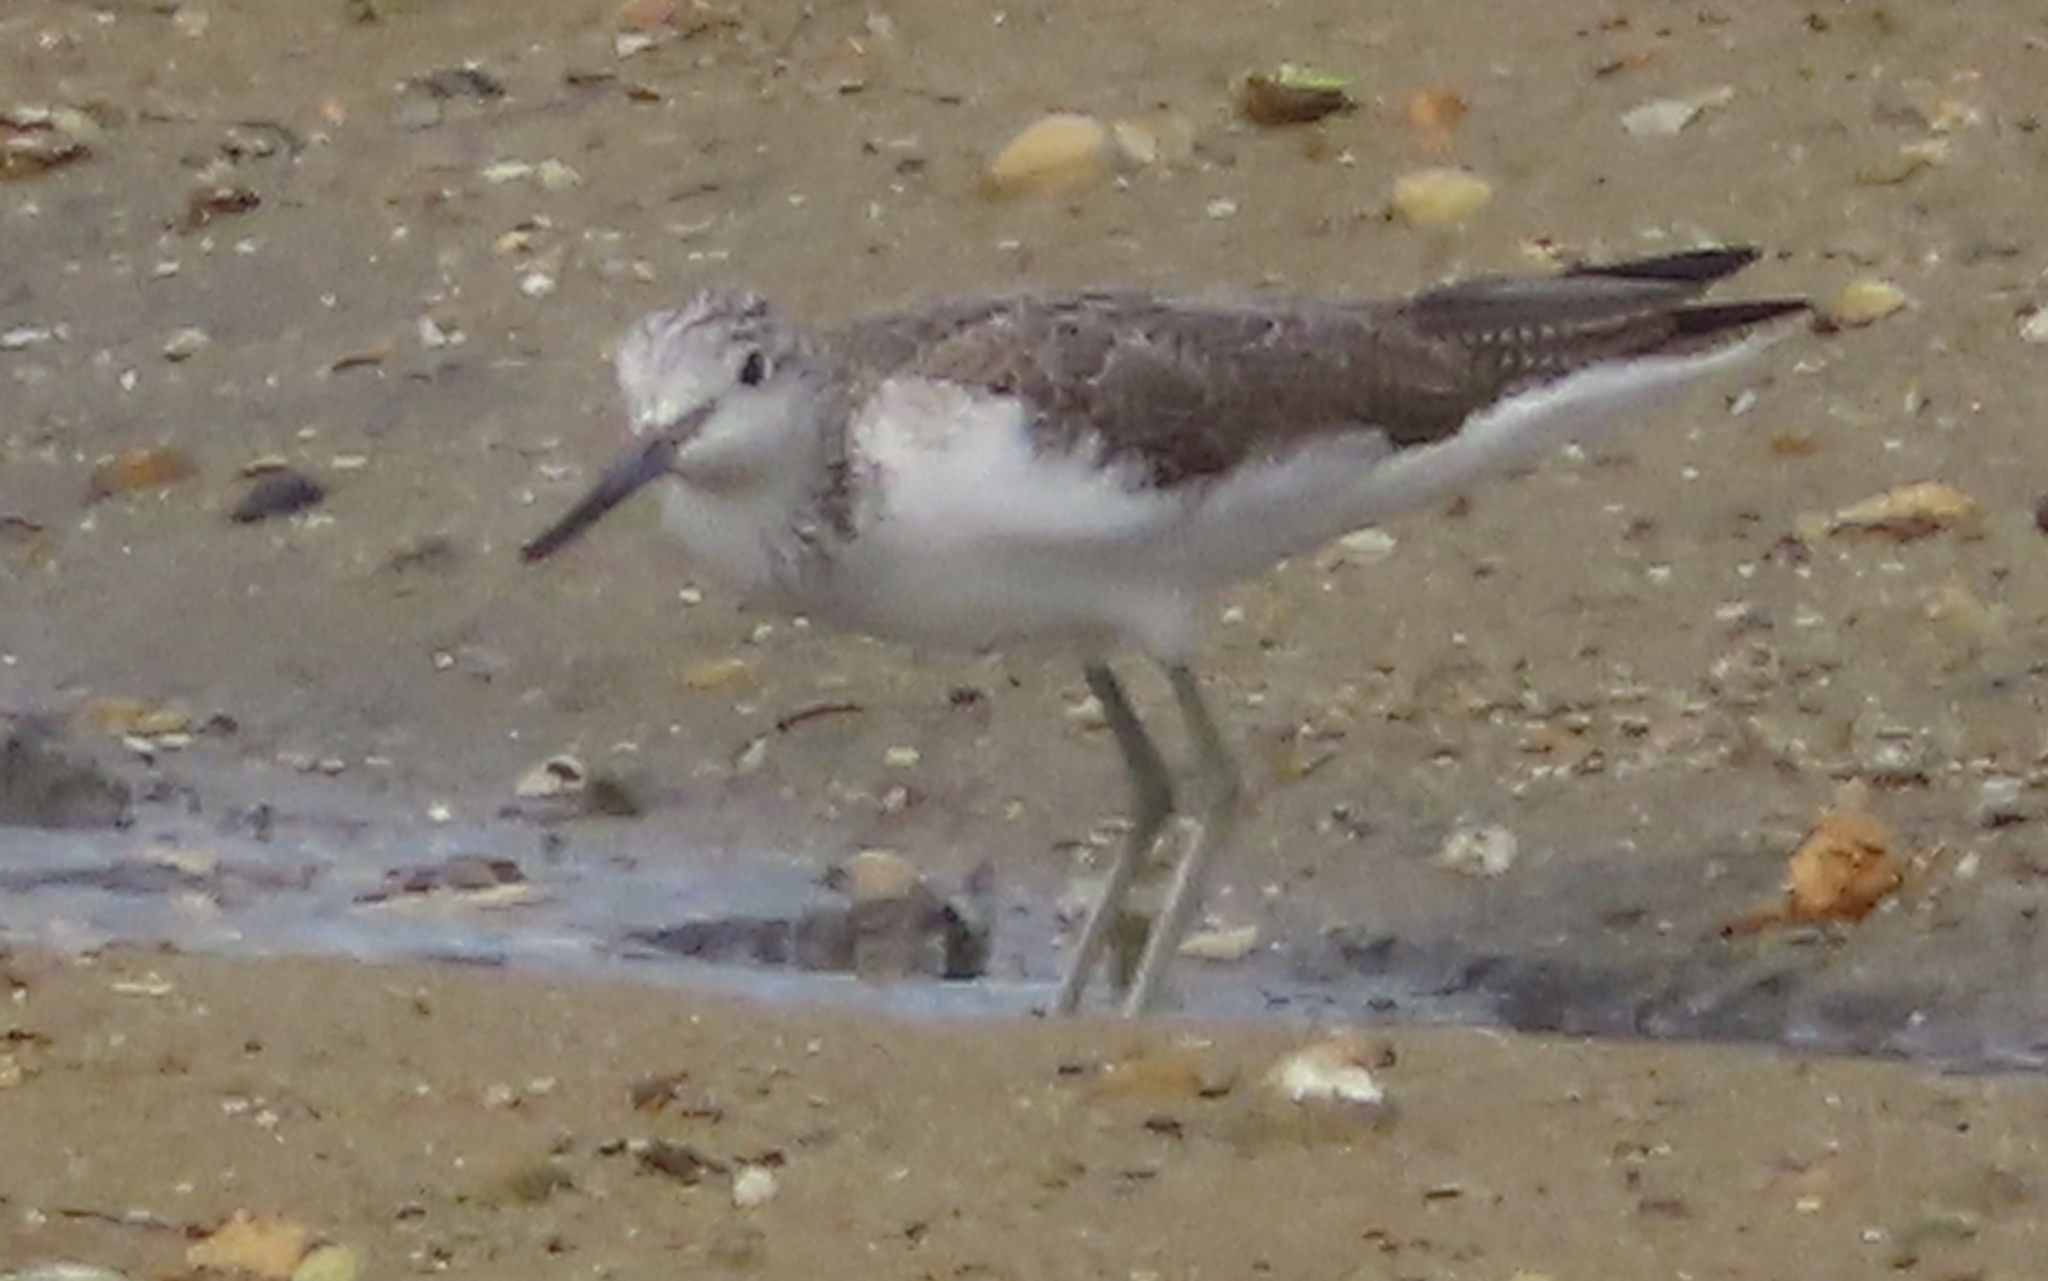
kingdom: Animalia
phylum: Chordata
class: Aves
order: Charadriiformes
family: Scolopacidae
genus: Tringa
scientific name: Tringa nebularia
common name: Common greenshank
